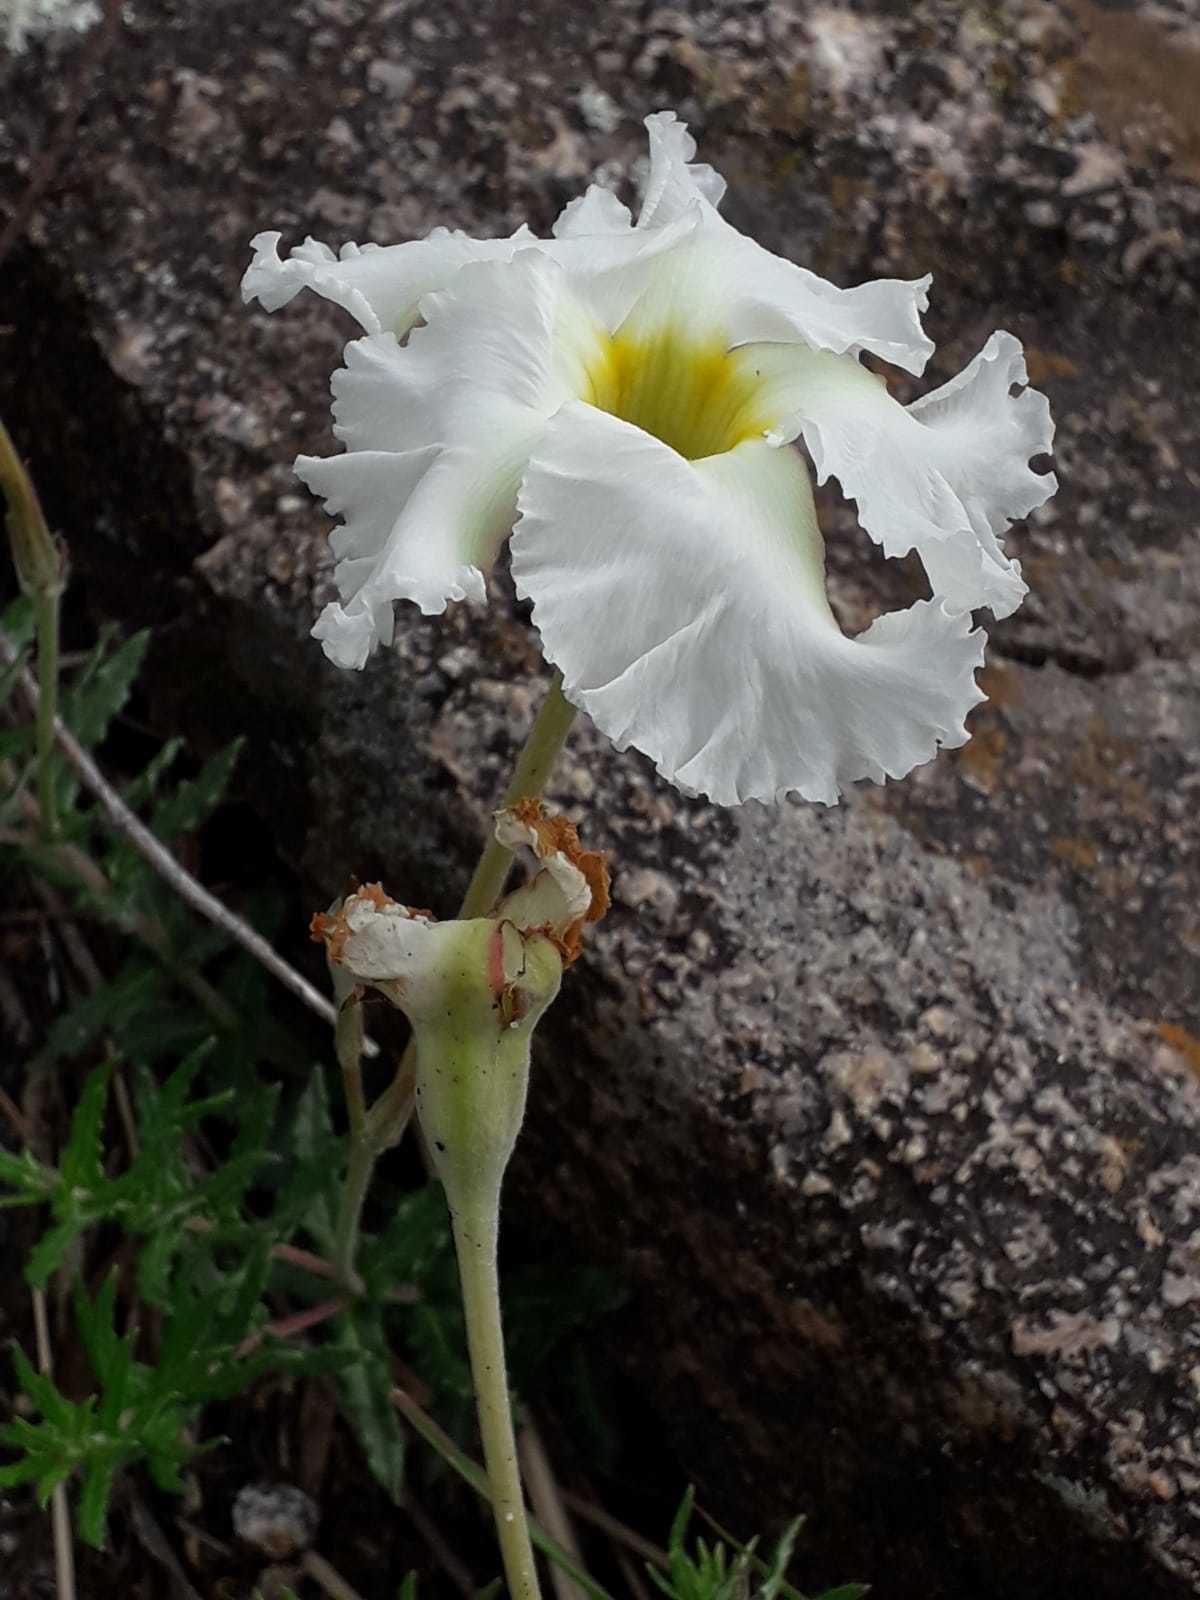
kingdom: Plantae
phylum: Tracheophyta
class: Magnoliopsida
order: Gentianales
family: Apocynaceae
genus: Mandevilla
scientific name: Mandevilla petraea
